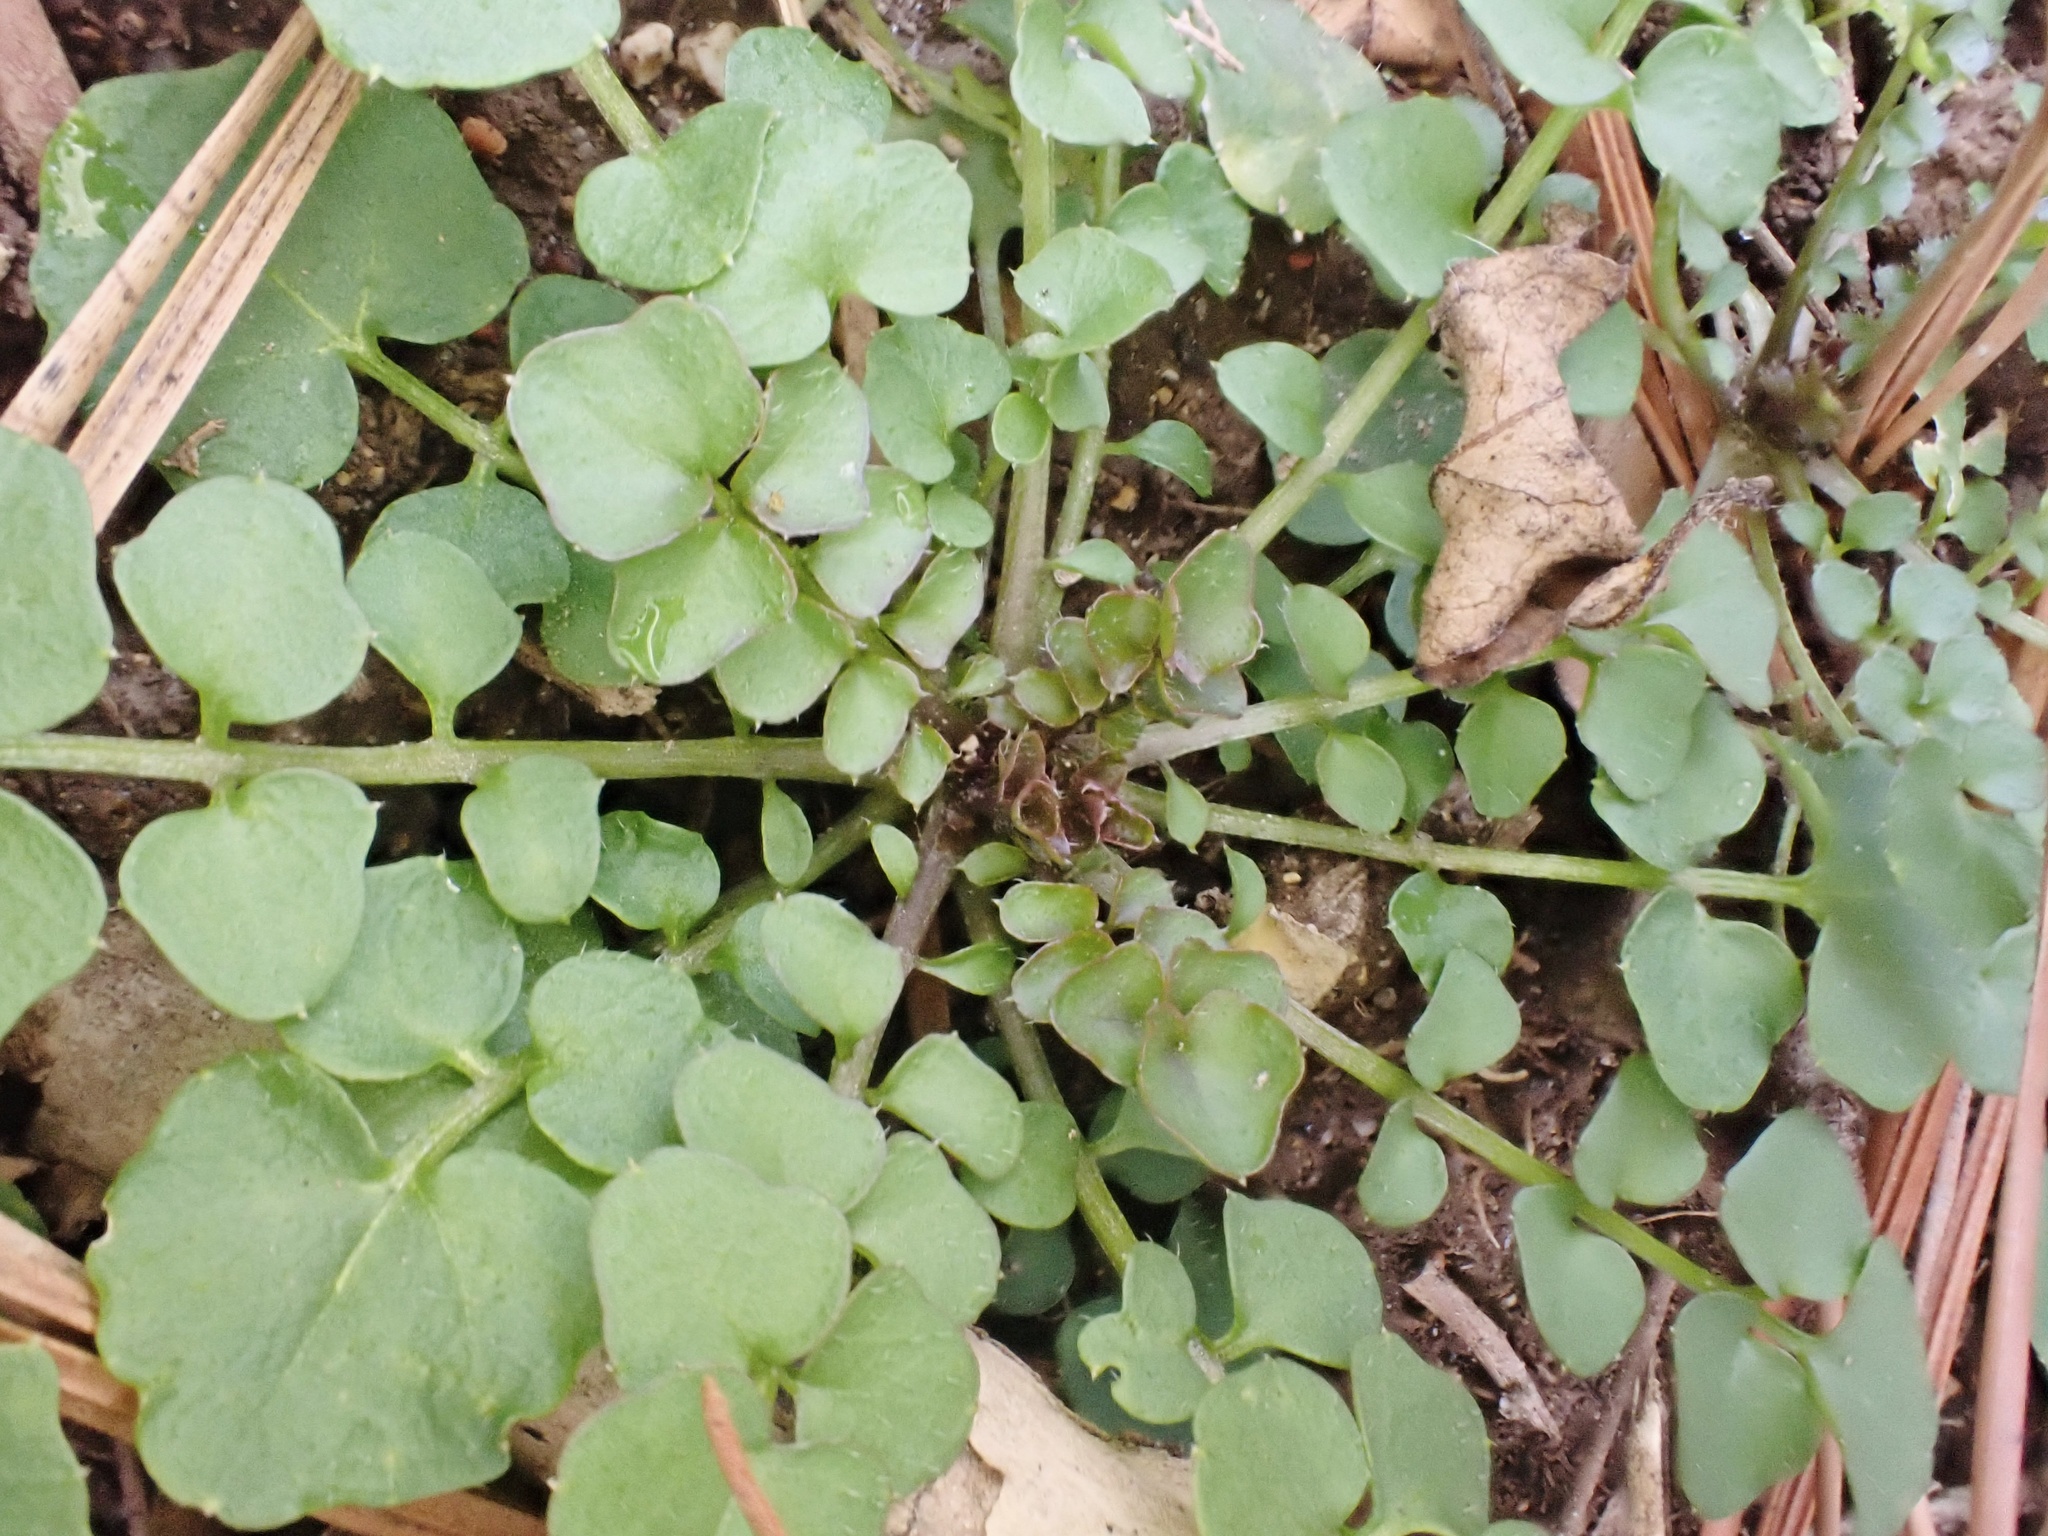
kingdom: Plantae
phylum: Tracheophyta
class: Magnoliopsida
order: Brassicales
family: Brassicaceae
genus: Cardamine
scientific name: Cardamine hirsuta
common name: Hairy bittercress
